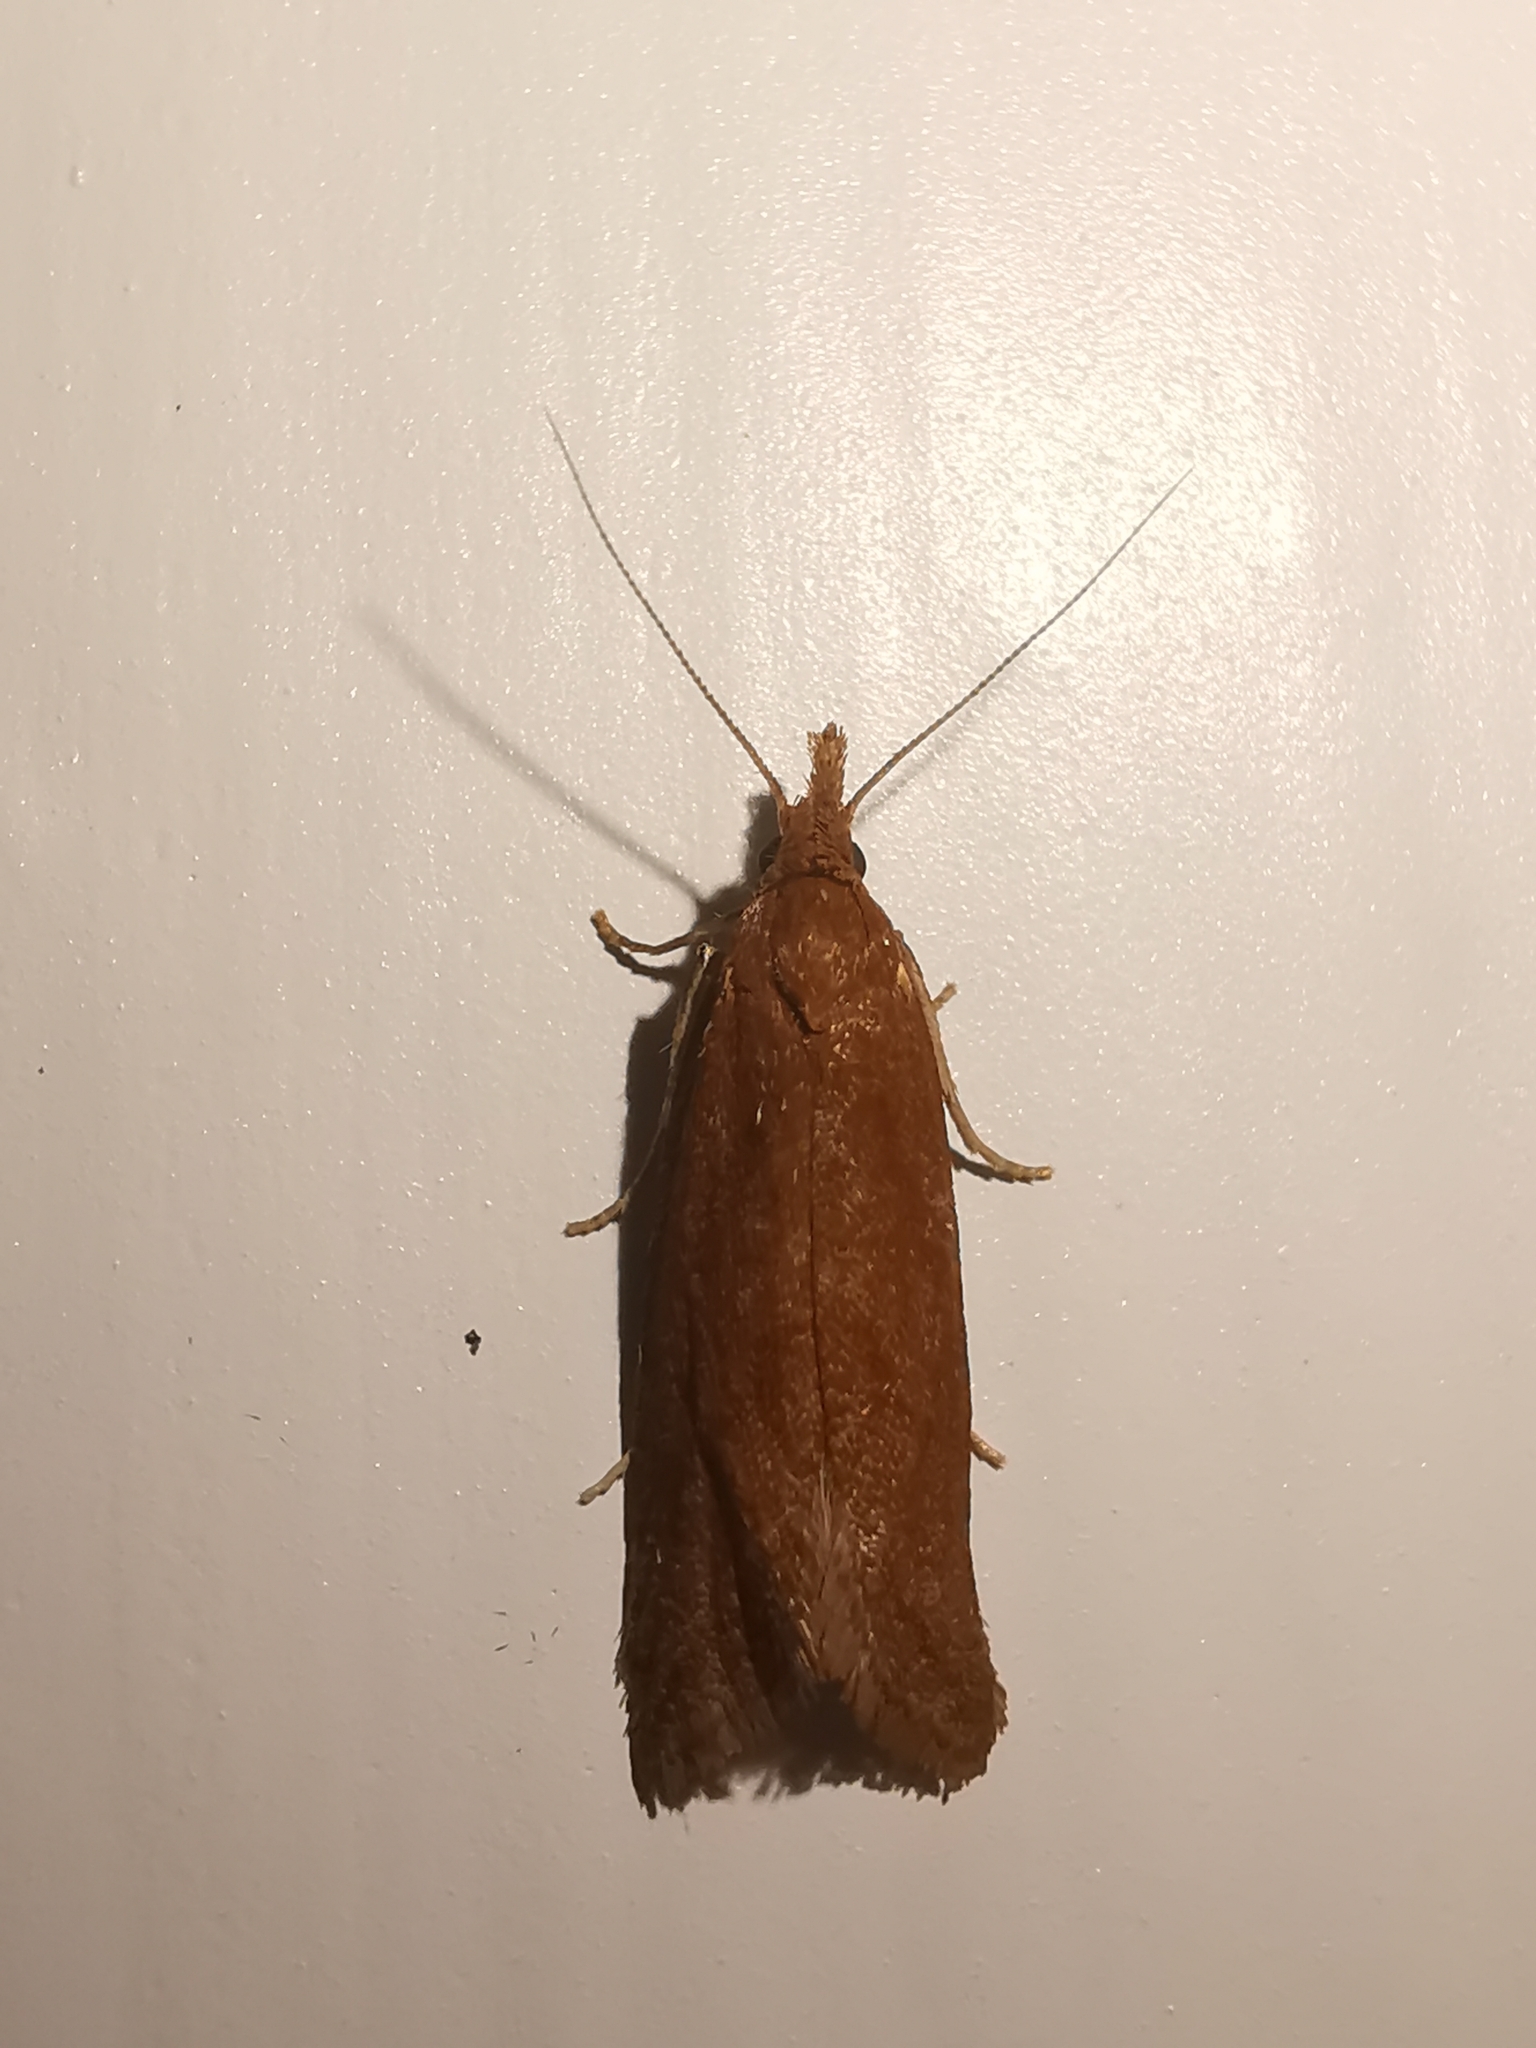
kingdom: Animalia
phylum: Arthropoda
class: Insecta
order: Lepidoptera
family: Tortricidae
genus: Aethes
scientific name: Aethes biscana
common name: Reddish aethes
